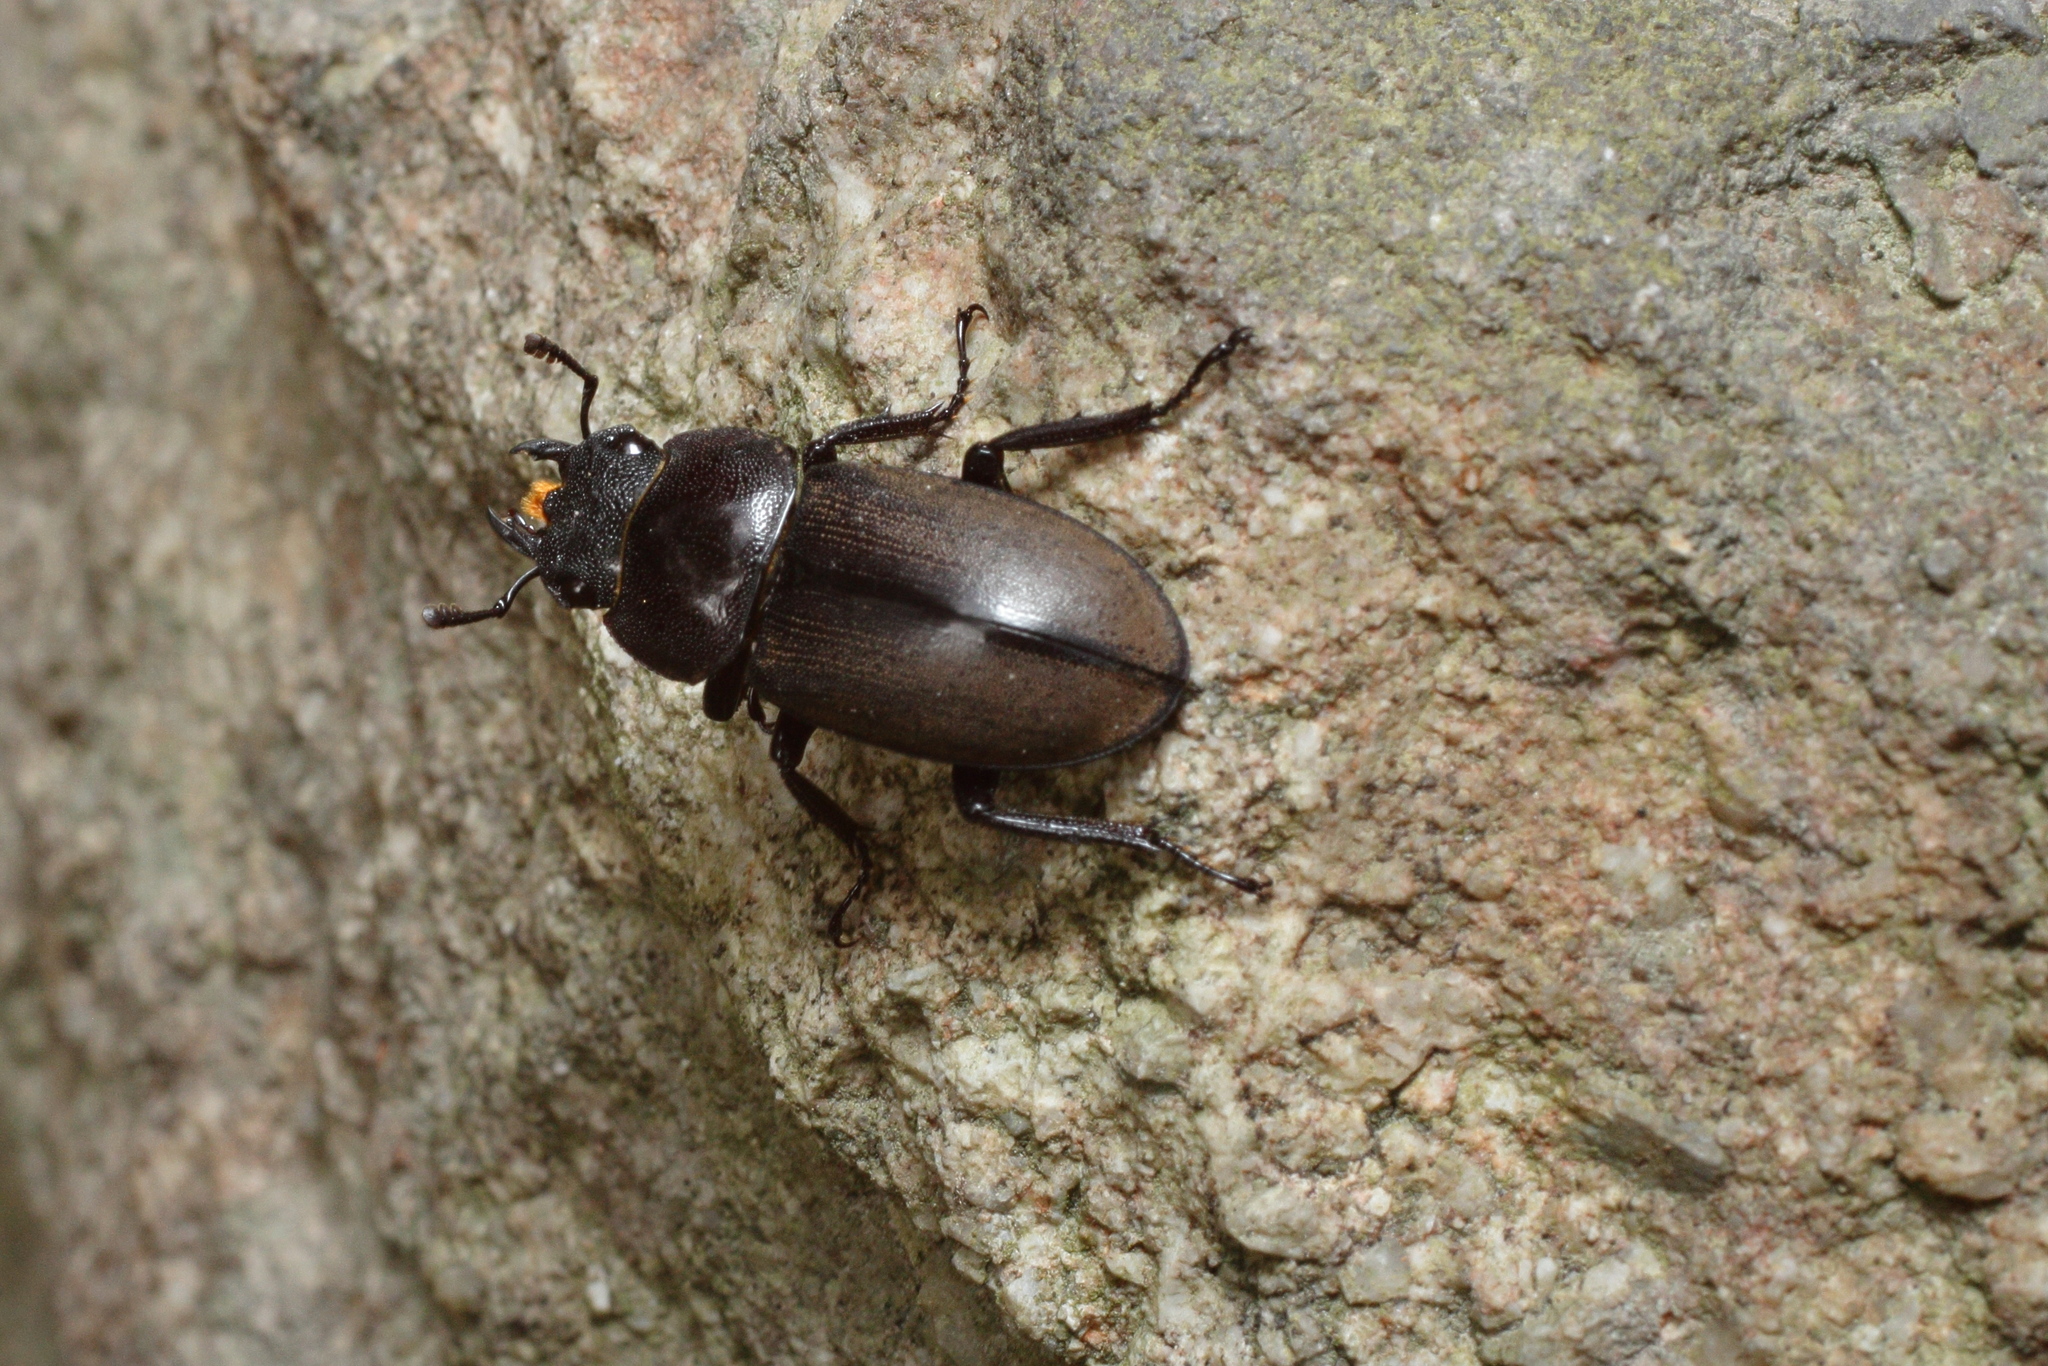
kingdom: Animalia
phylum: Arthropoda
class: Insecta
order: Coleoptera
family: Lucanidae
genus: Dorcus
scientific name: Dorcus rectus
